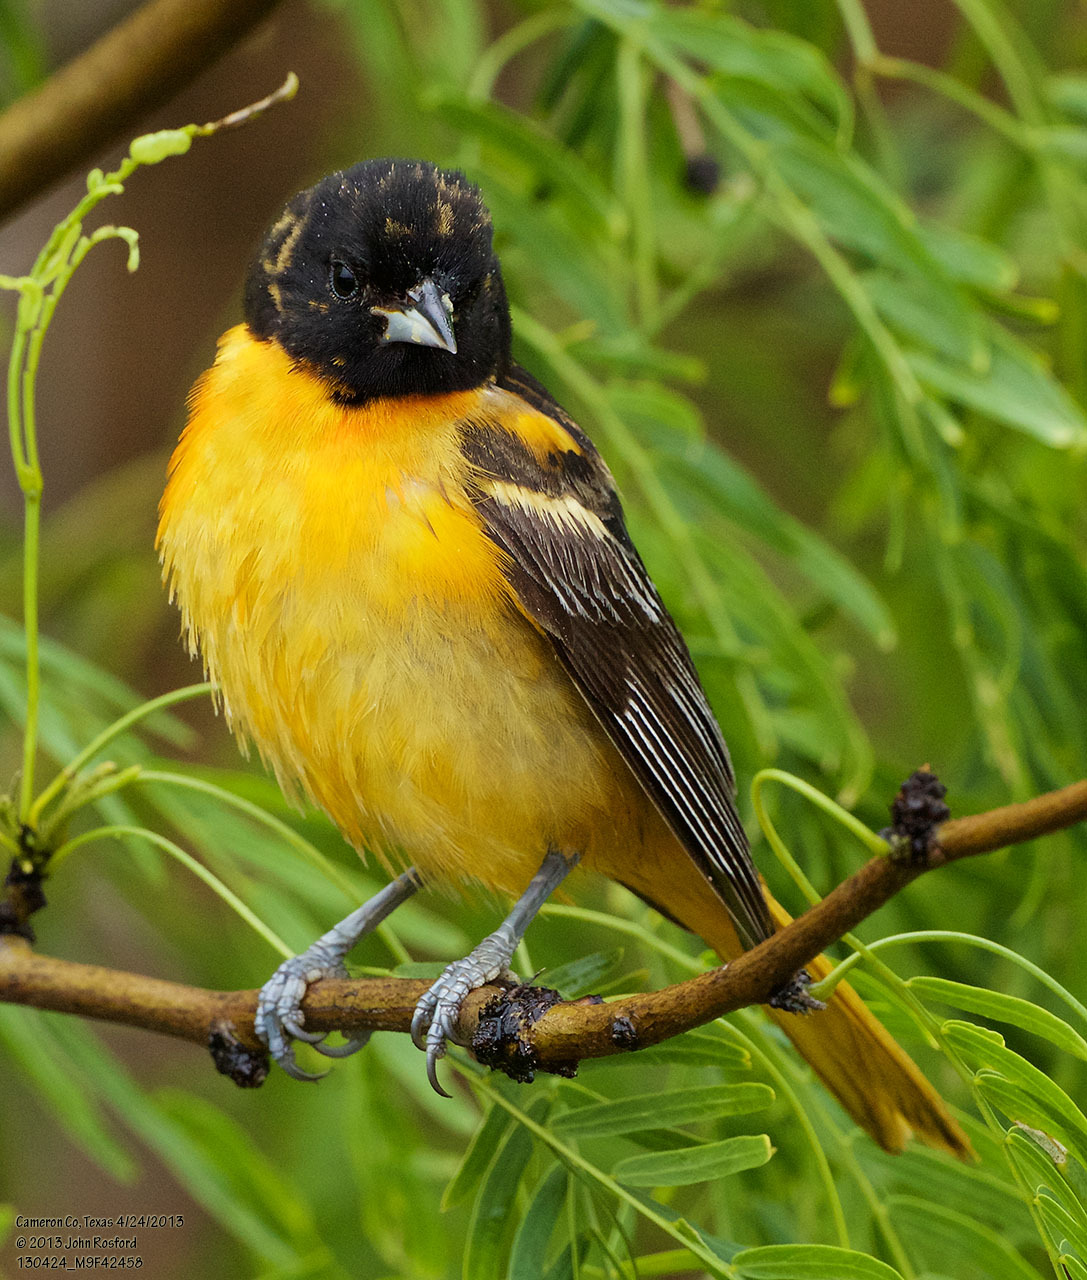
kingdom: Animalia
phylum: Chordata
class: Aves
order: Passeriformes
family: Icteridae
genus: Icterus
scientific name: Icterus galbula
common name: Baltimore oriole
